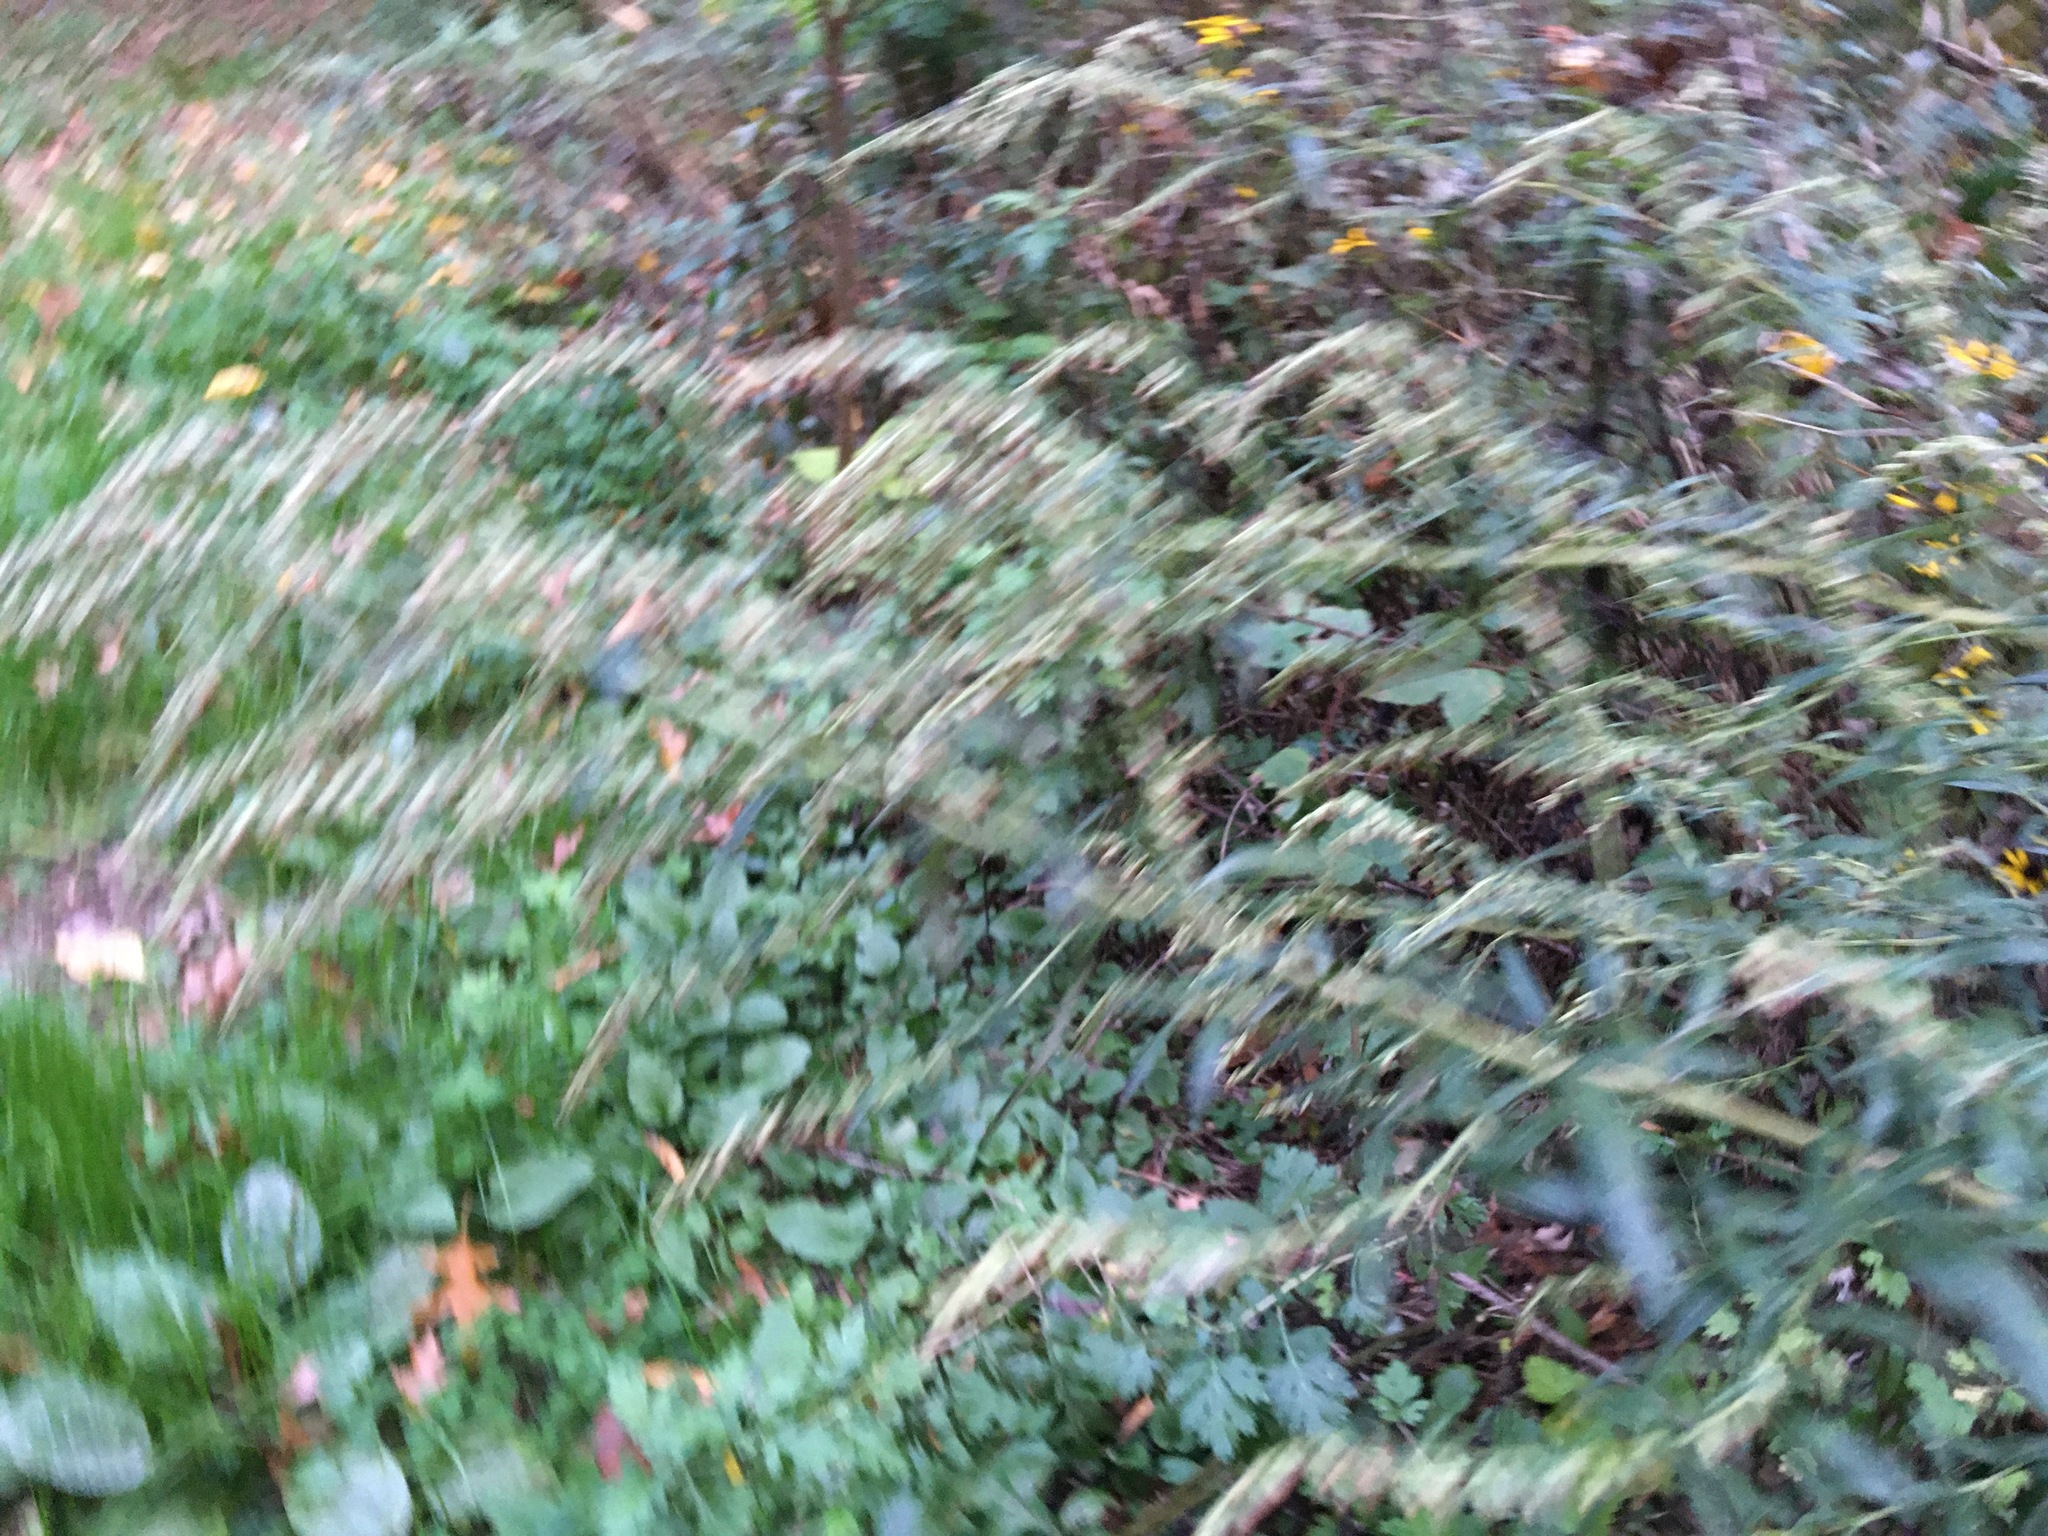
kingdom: Plantae
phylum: Tracheophyta
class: Magnoliopsida
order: Asterales
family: Asteraceae
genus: Artemisia
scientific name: Artemisia vulgaris
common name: Mugwort
